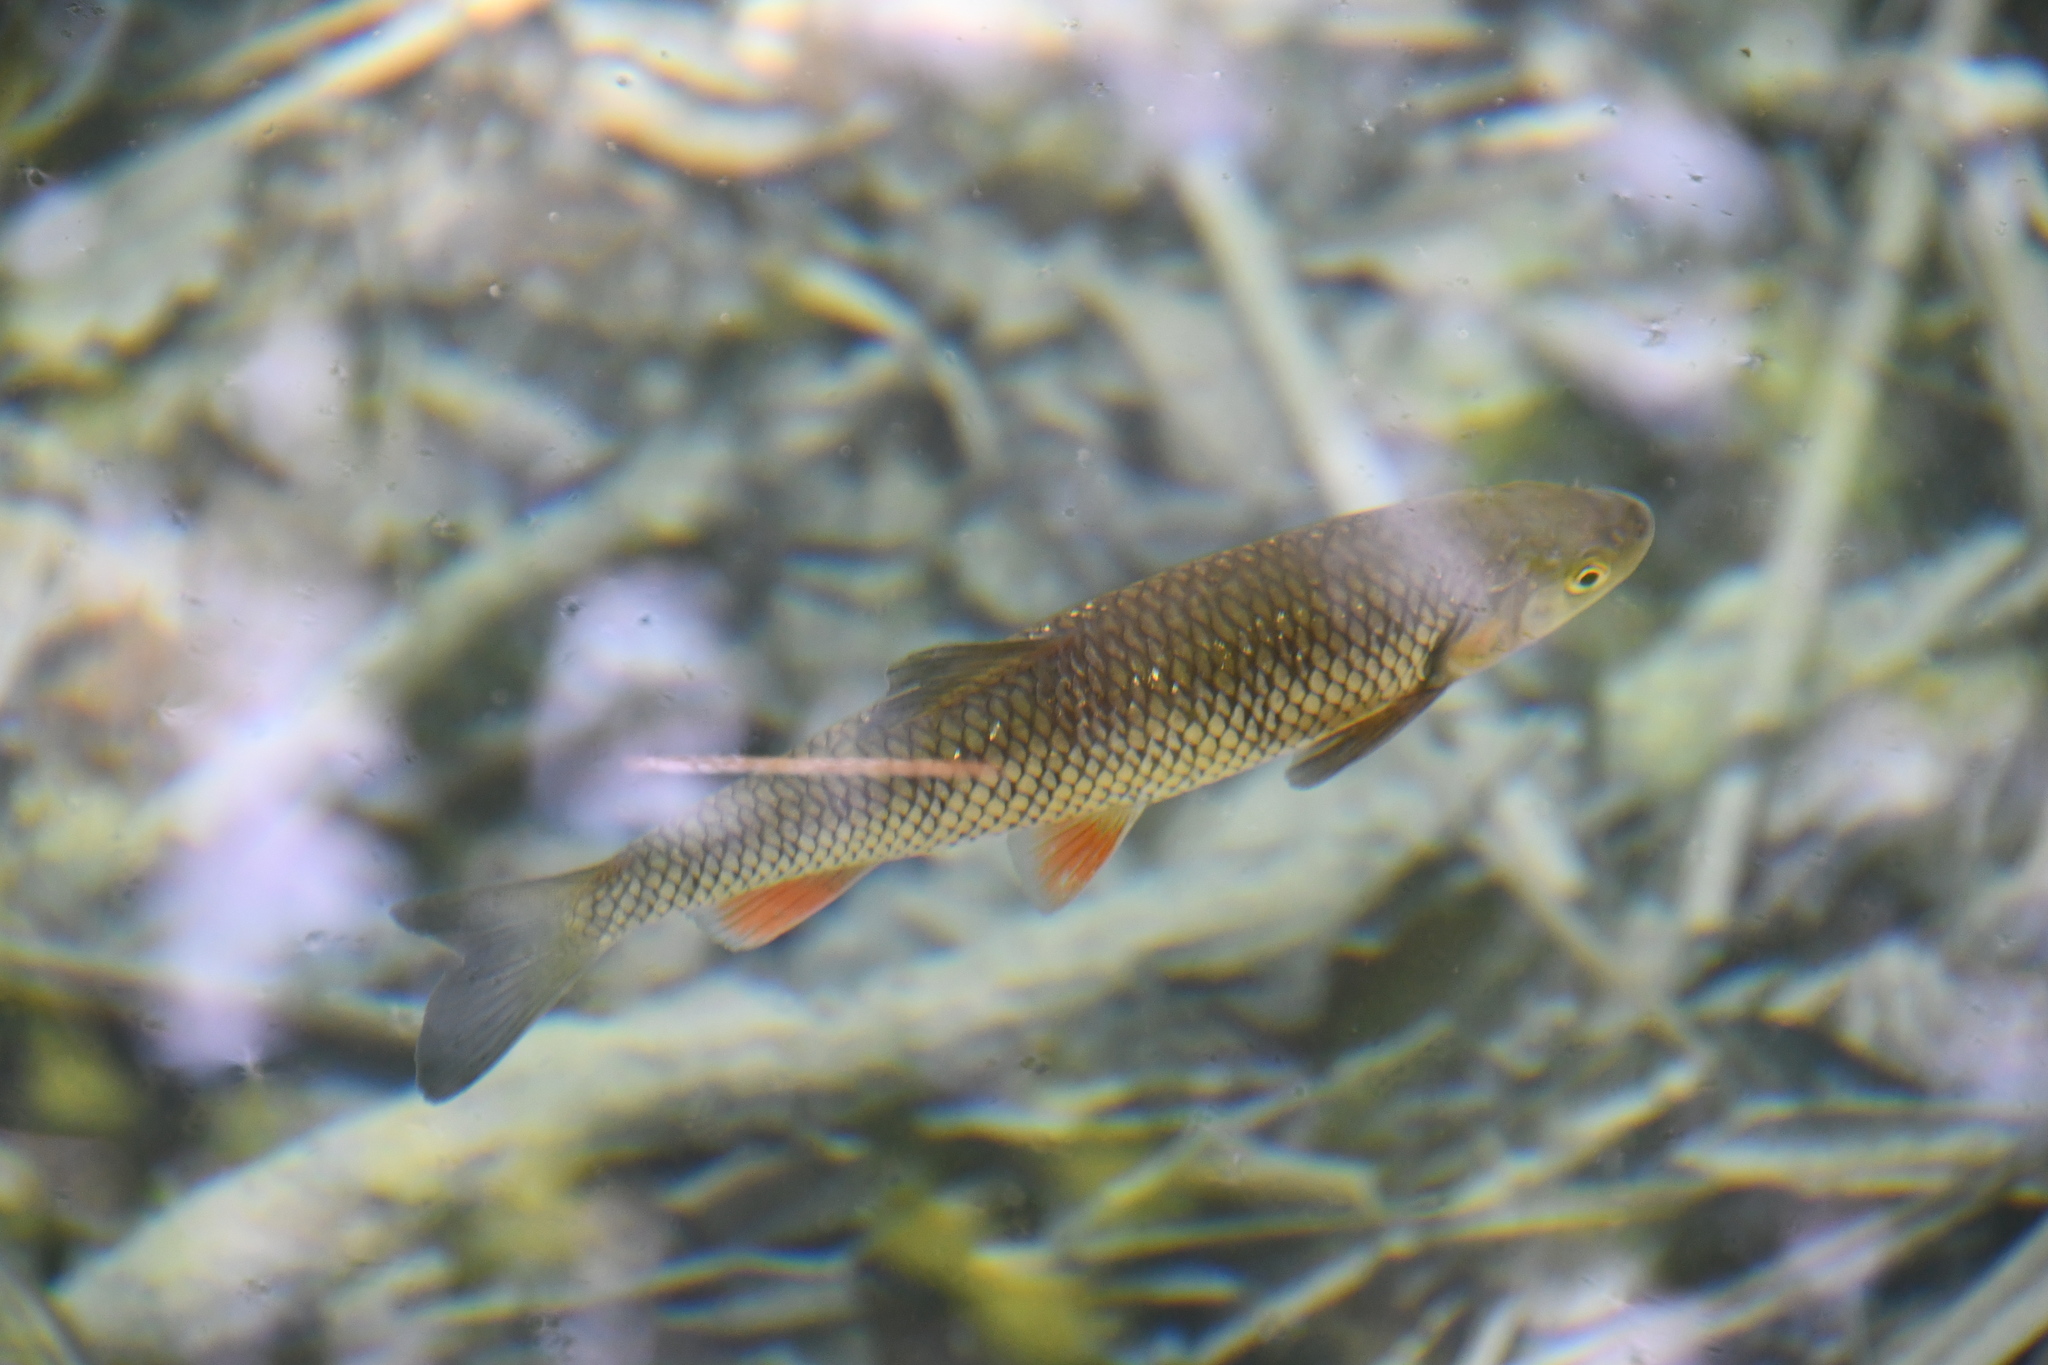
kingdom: Animalia
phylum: Chordata
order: Cypriniformes
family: Cyprinidae
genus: Squalius
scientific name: Squalius cephalus
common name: Chub
